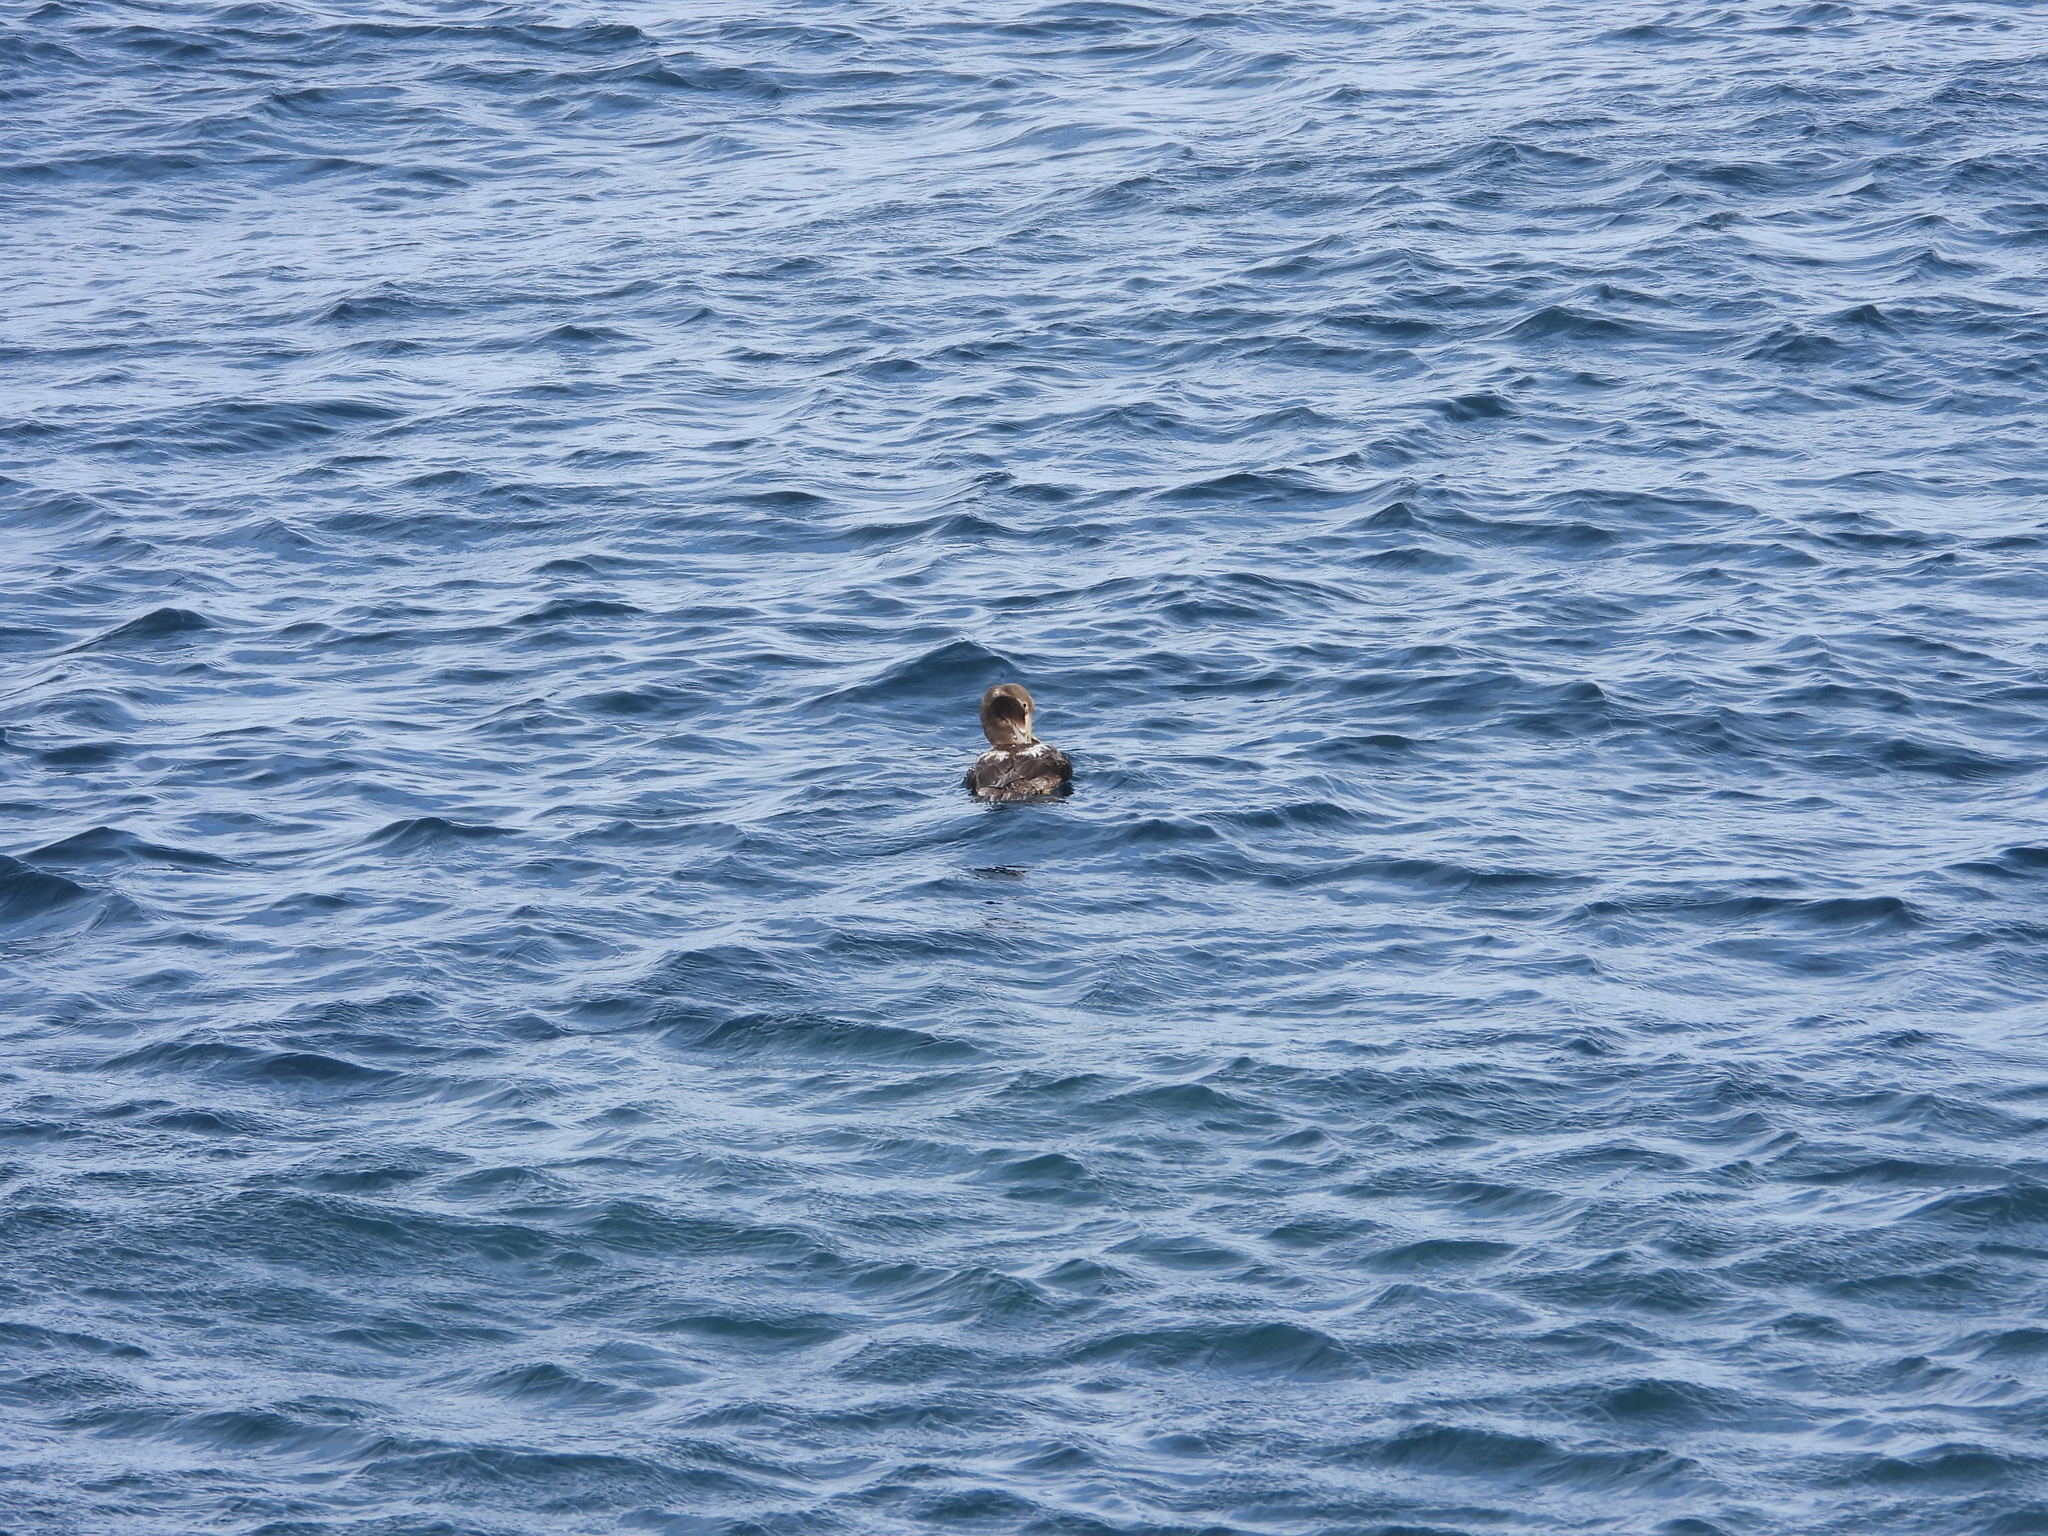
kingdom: Animalia
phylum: Chordata
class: Aves
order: Anseriformes
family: Anatidae
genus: Somateria
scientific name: Somateria mollissima
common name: Common eider
